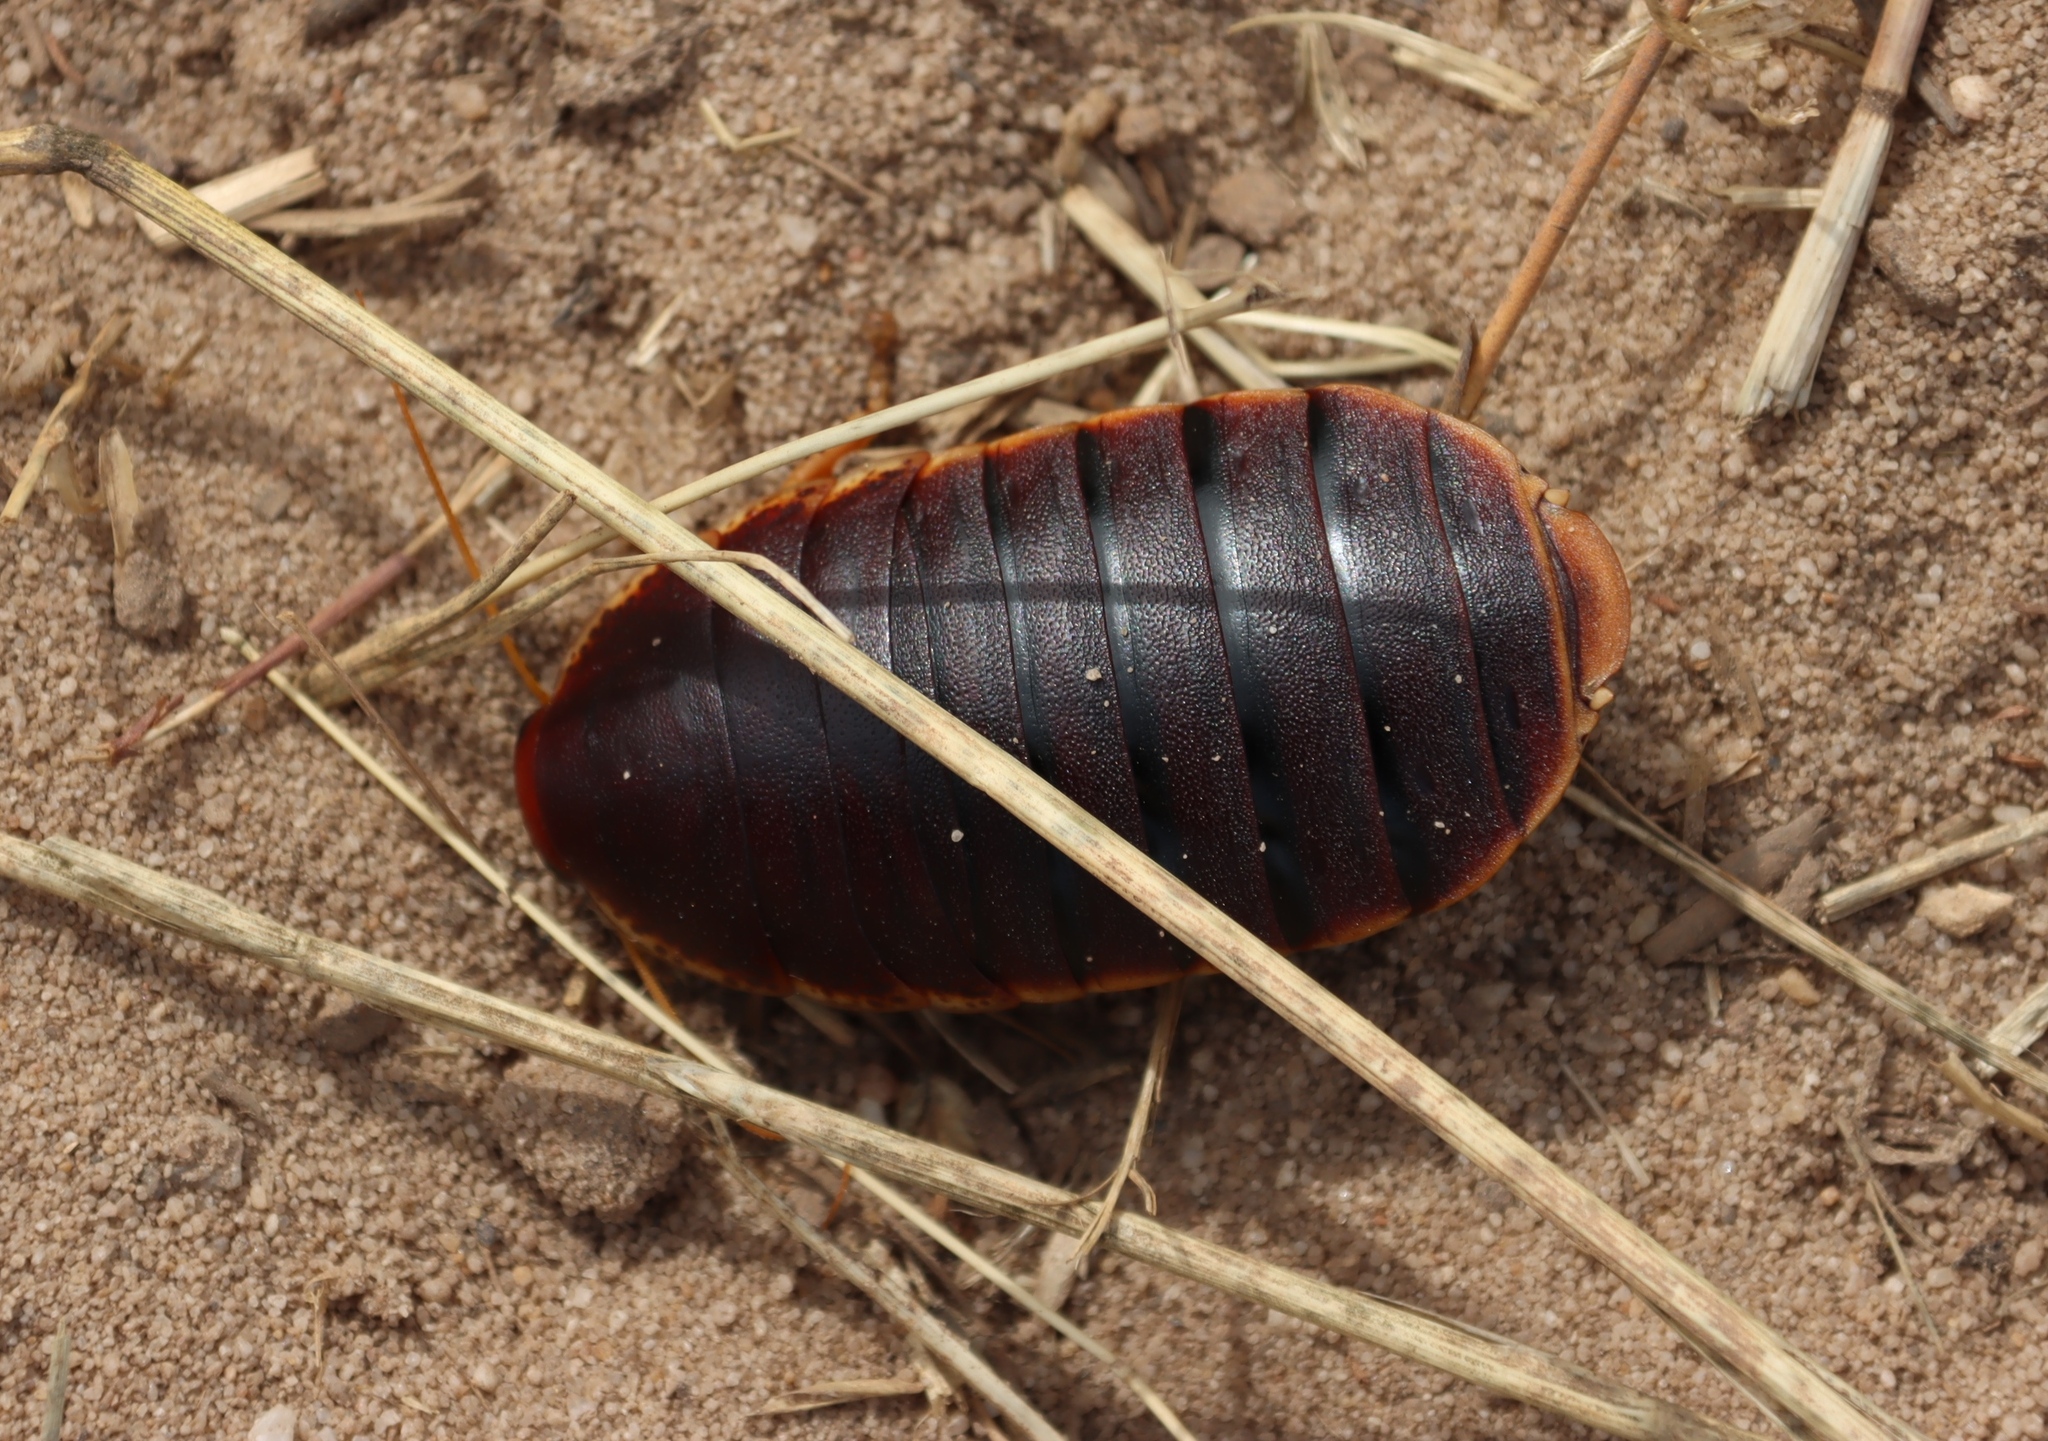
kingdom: Animalia
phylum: Arthropoda
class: Insecta
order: Blattodea
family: Blaberidae
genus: Aptera
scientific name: Aptera fusca
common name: Cape mountain cockroach
